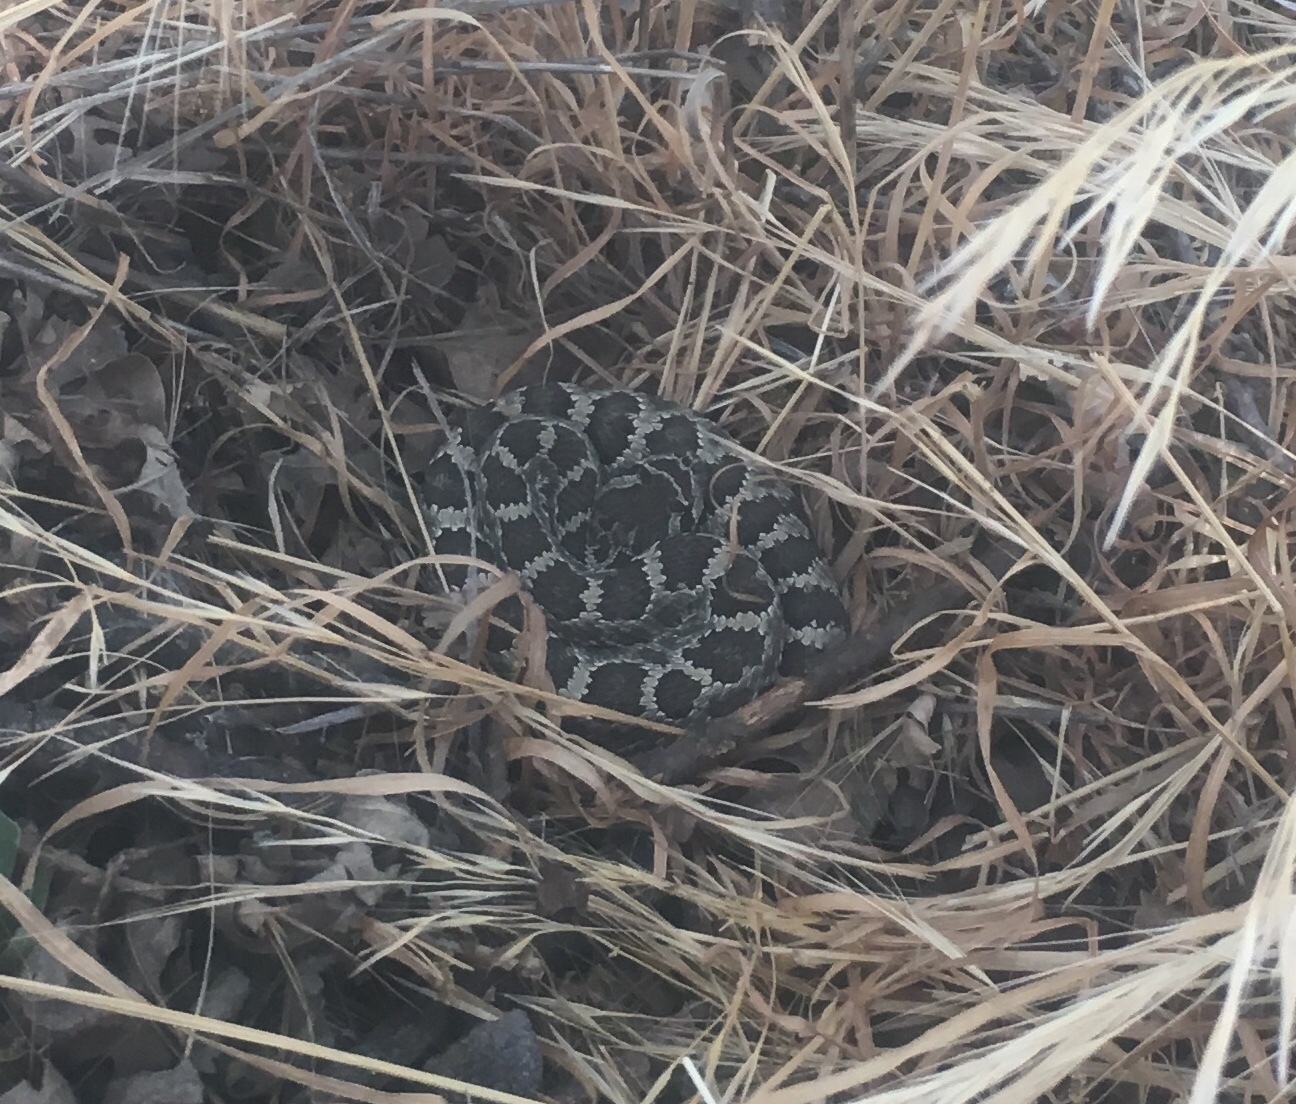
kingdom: Animalia
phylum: Chordata
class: Squamata
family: Viperidae
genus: Crotalus
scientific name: Crotalus oreganus
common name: Abyssus
